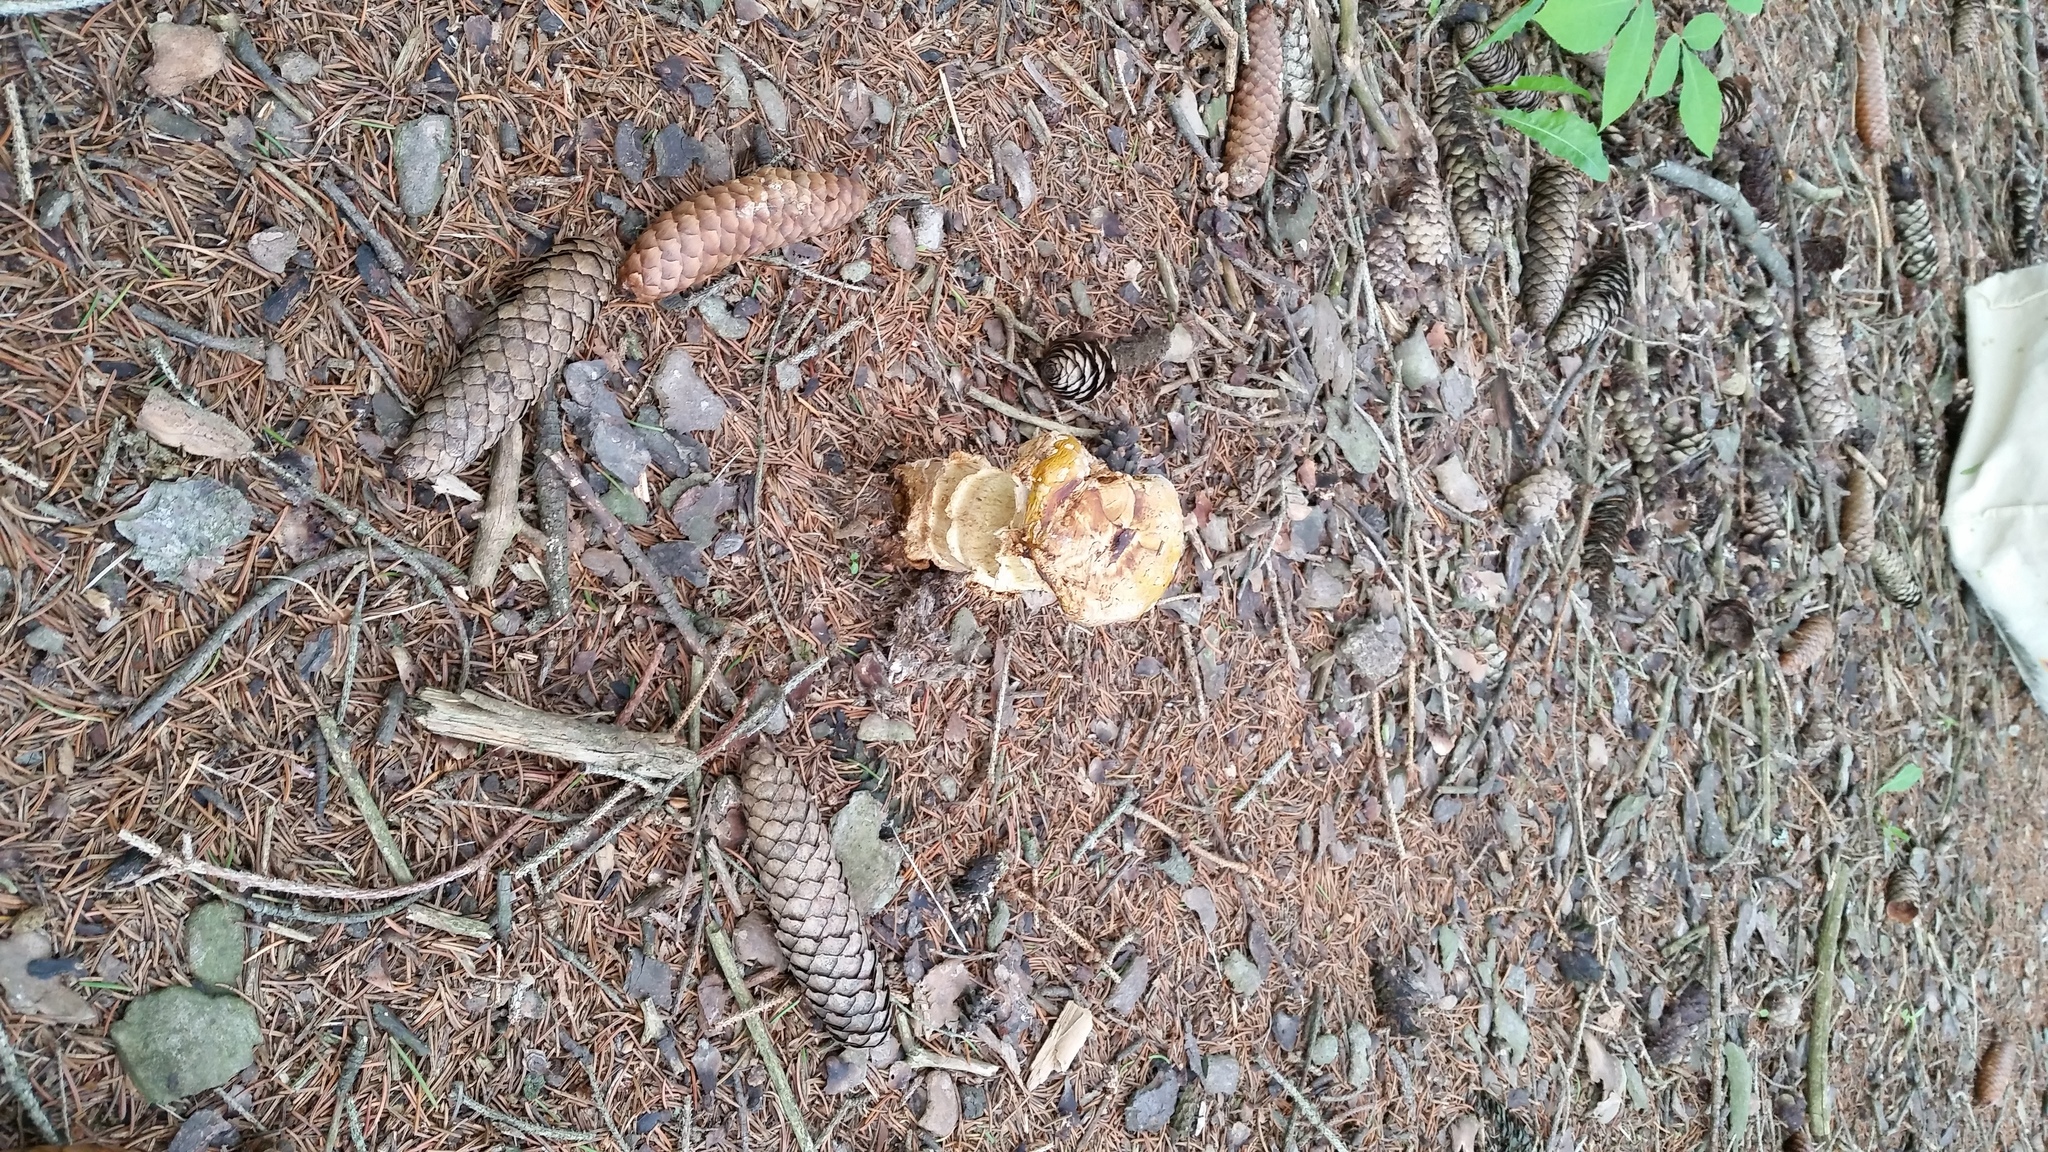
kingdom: Fungi
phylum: Basidiomycota
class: Agaricomycetes
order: Agaricales
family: Amanitaceae
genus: Amanita
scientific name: Amanita muscaria
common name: Fly agaric
